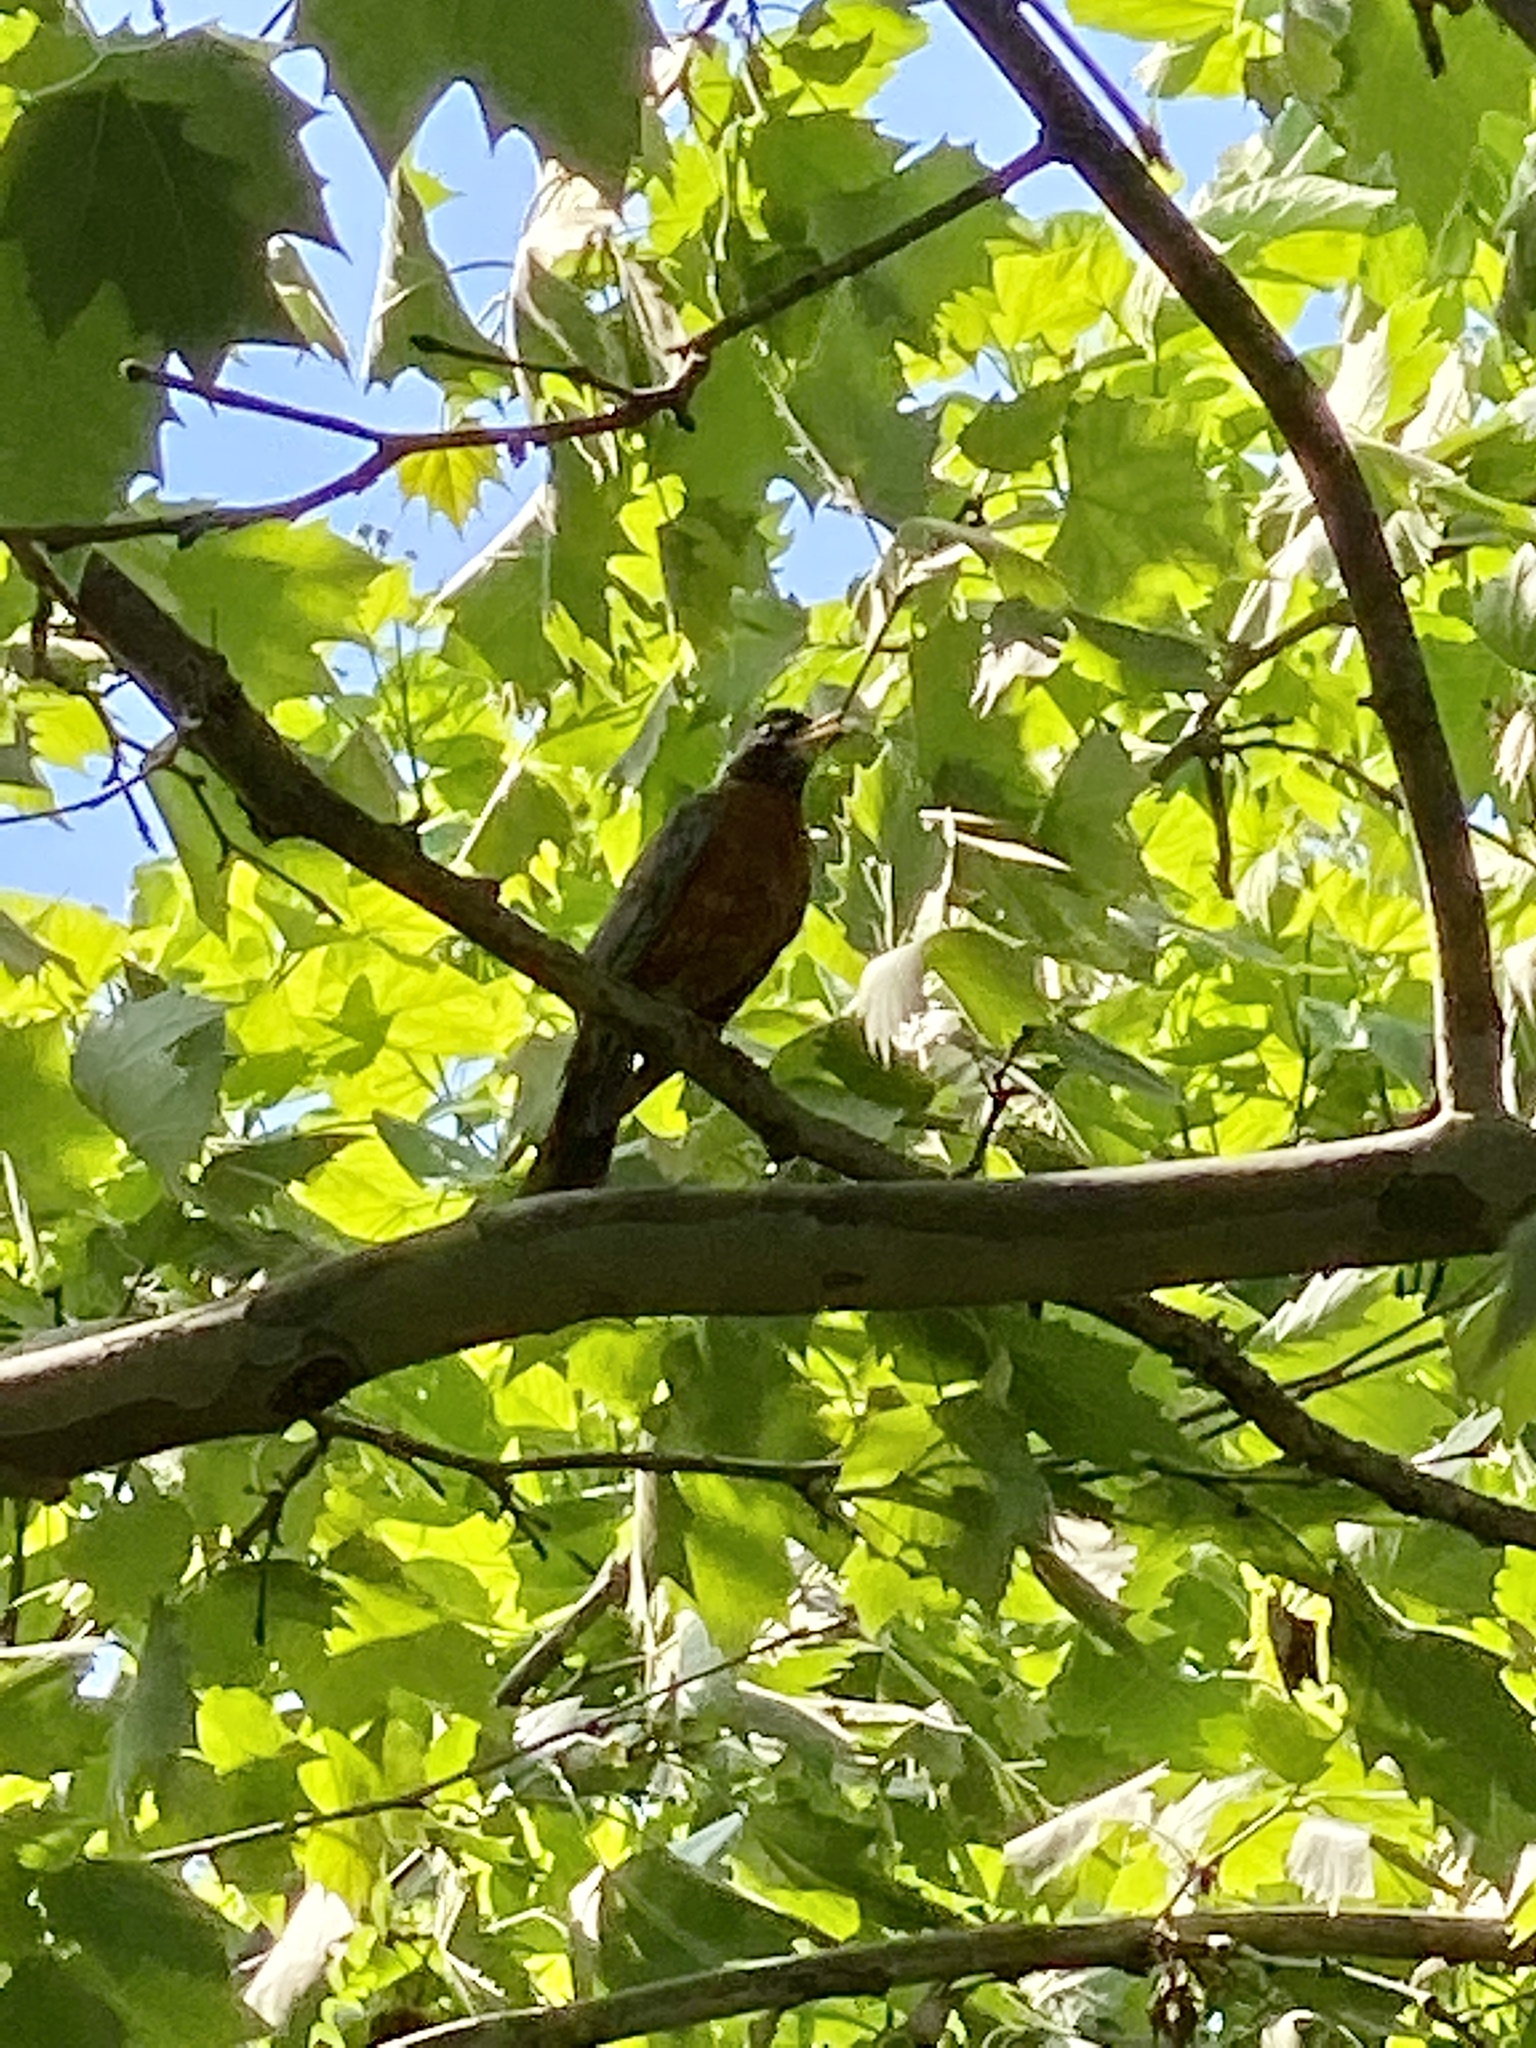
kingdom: Animalia
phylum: Chordata
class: Aves
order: Passeriformes
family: Turdidae
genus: Turdus
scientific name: Turdus migratorius
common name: American robin
